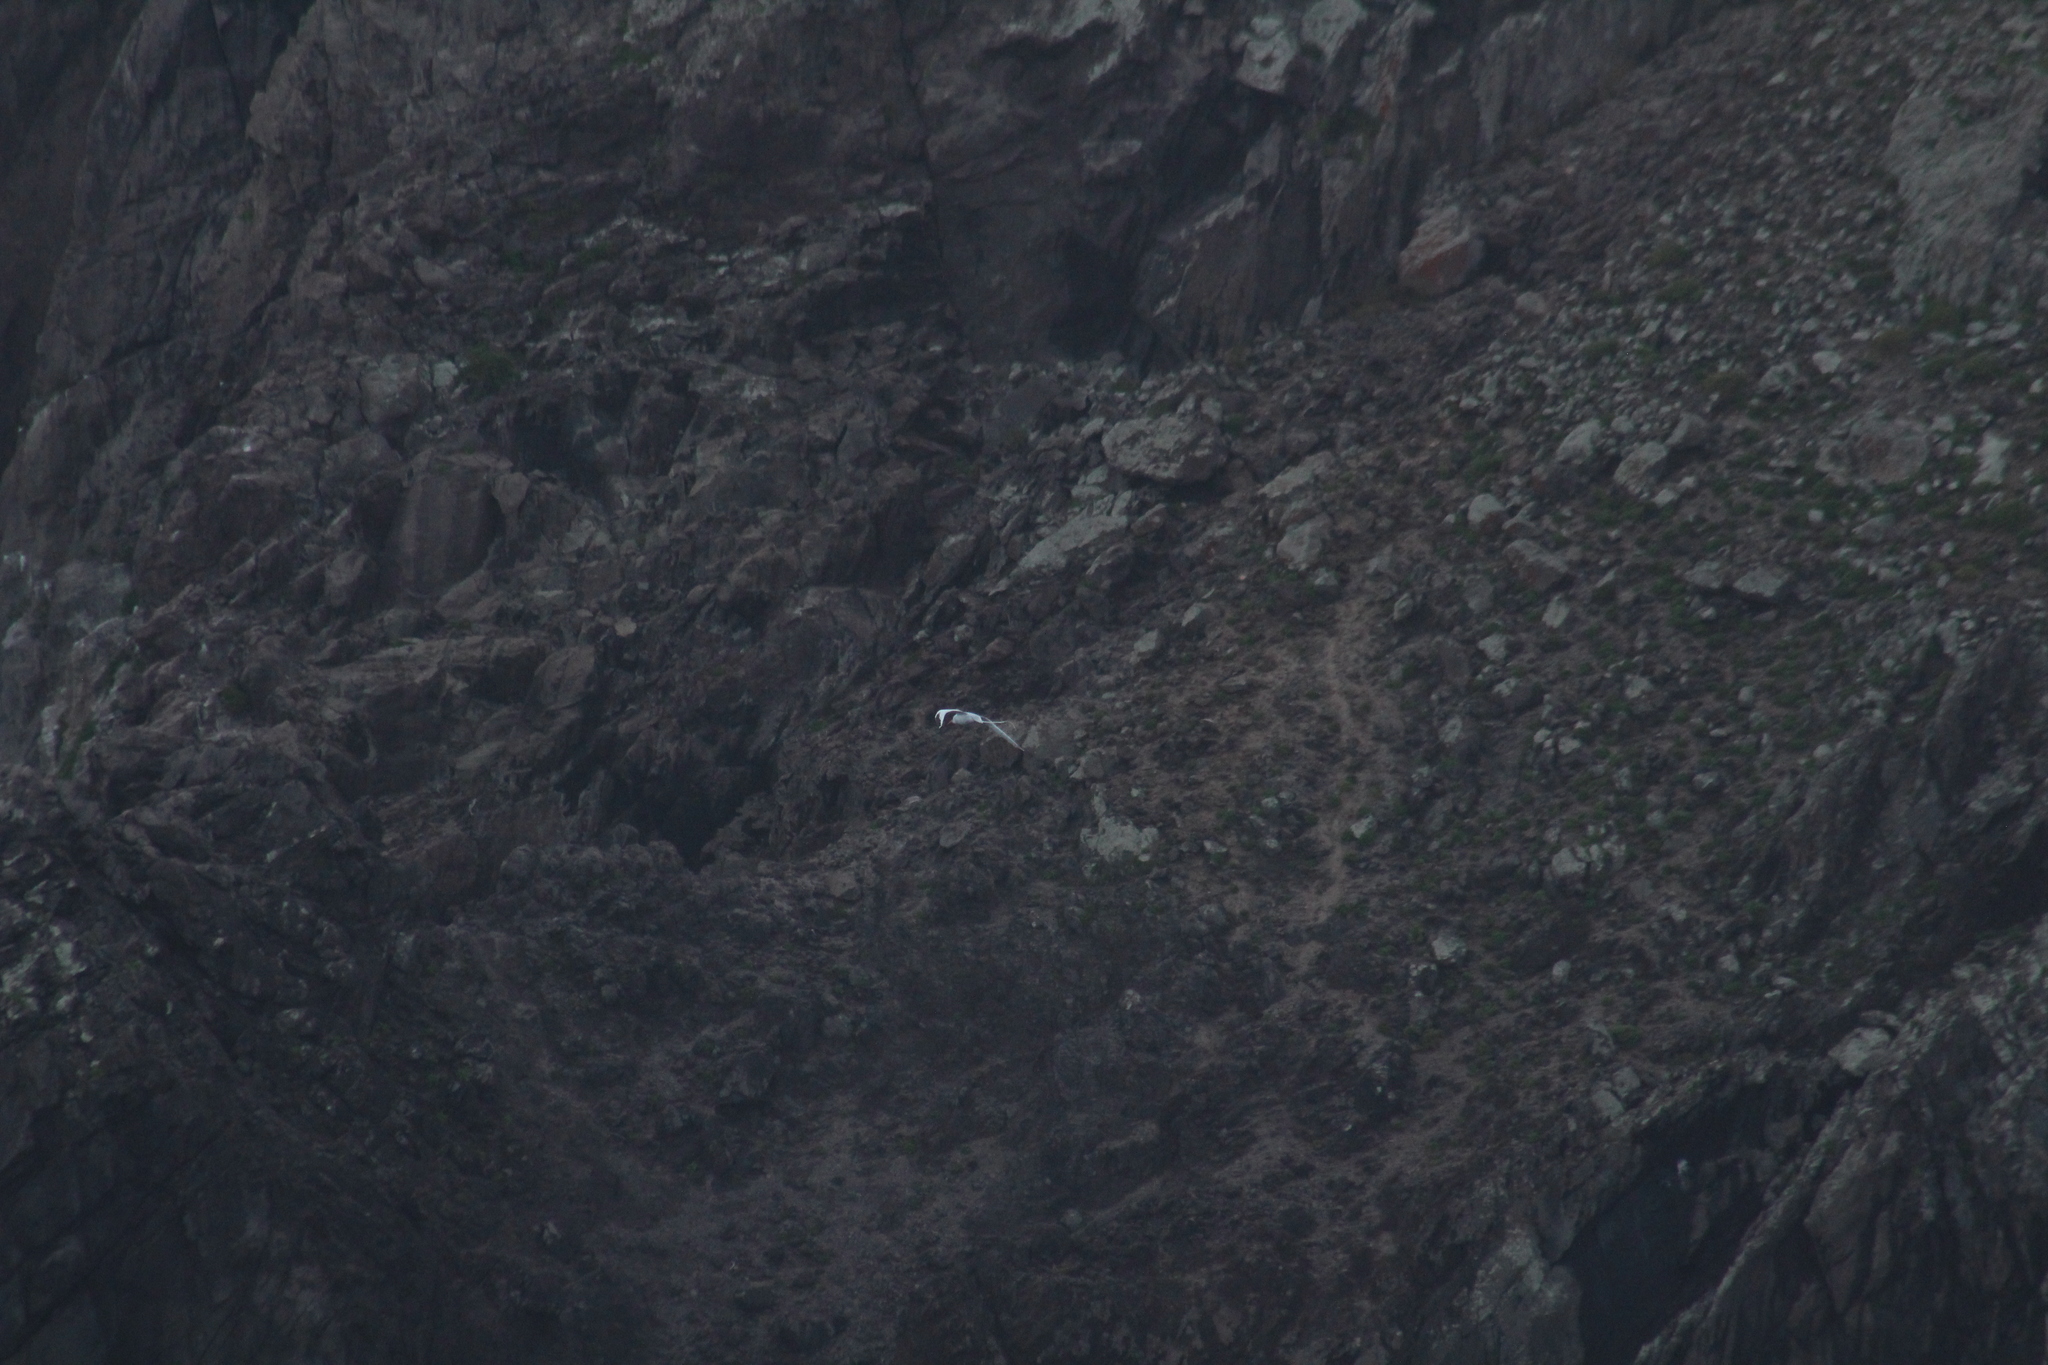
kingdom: Animalia
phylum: Chordata
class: Aves
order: Phaethontiformes
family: Phaethontidae
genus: Phaethon
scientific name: Phaethon aethereus
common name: Red-billed tropicbird
